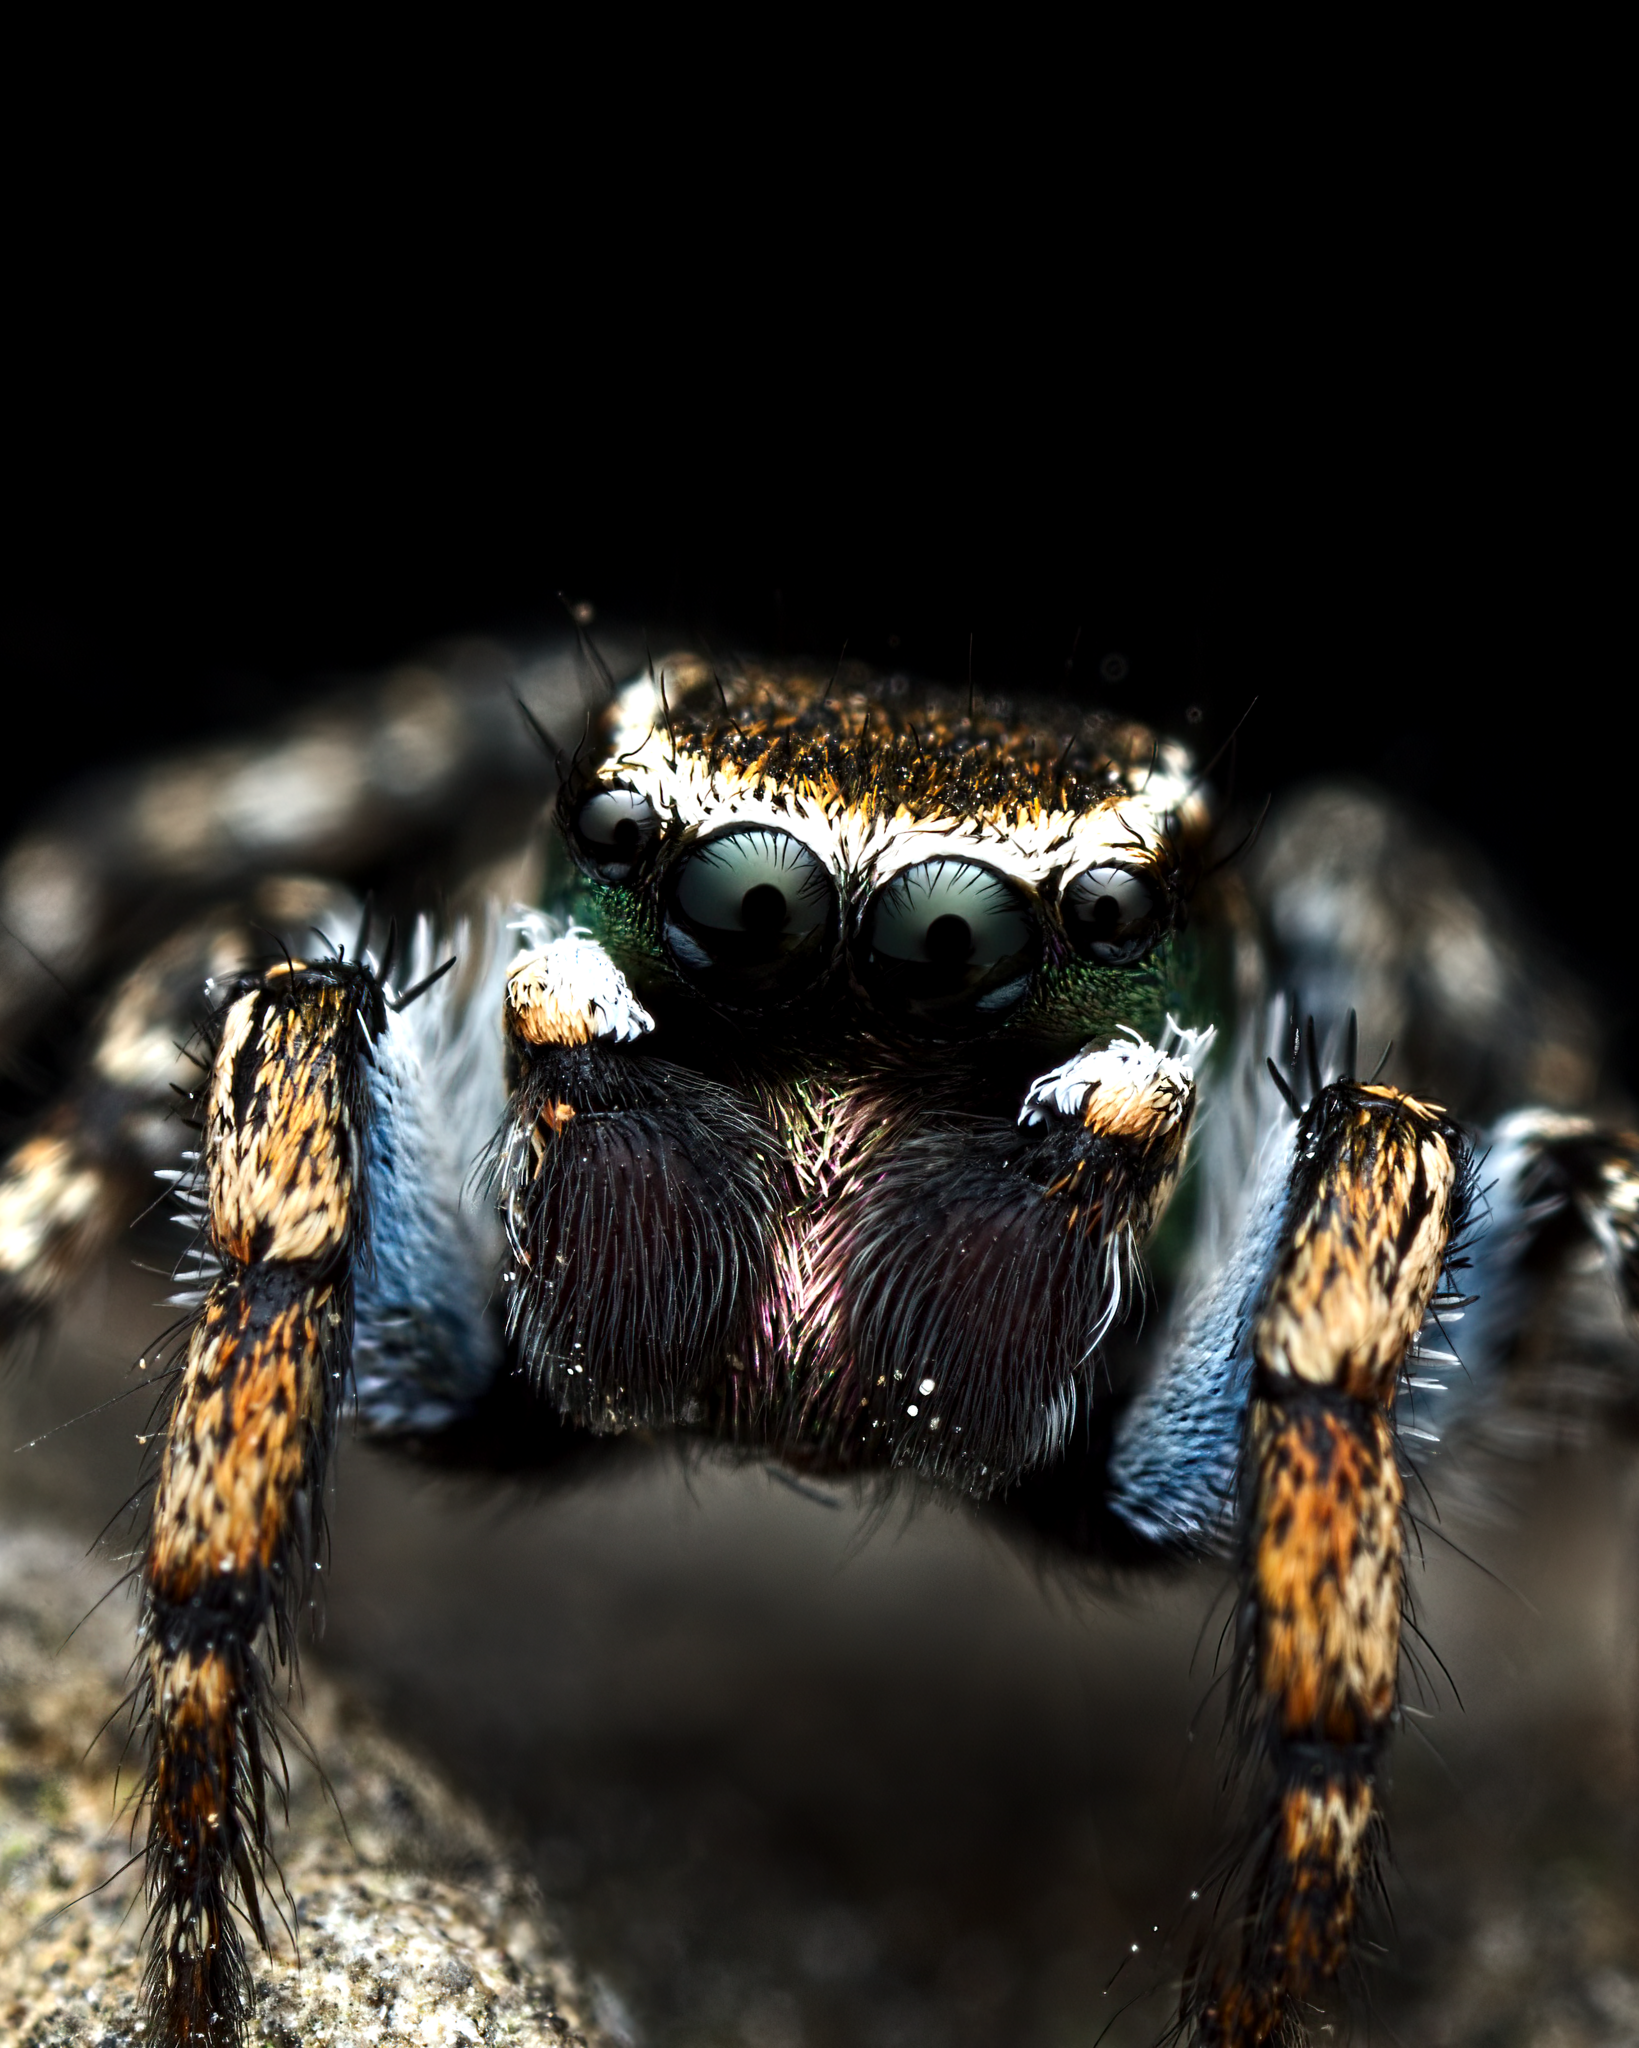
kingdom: Animalia
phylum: Arthropoda
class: Arachnida
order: Araneae
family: Salticidae
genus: Habronattus
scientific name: Habronattus cambridgei
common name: Jumping spiders
